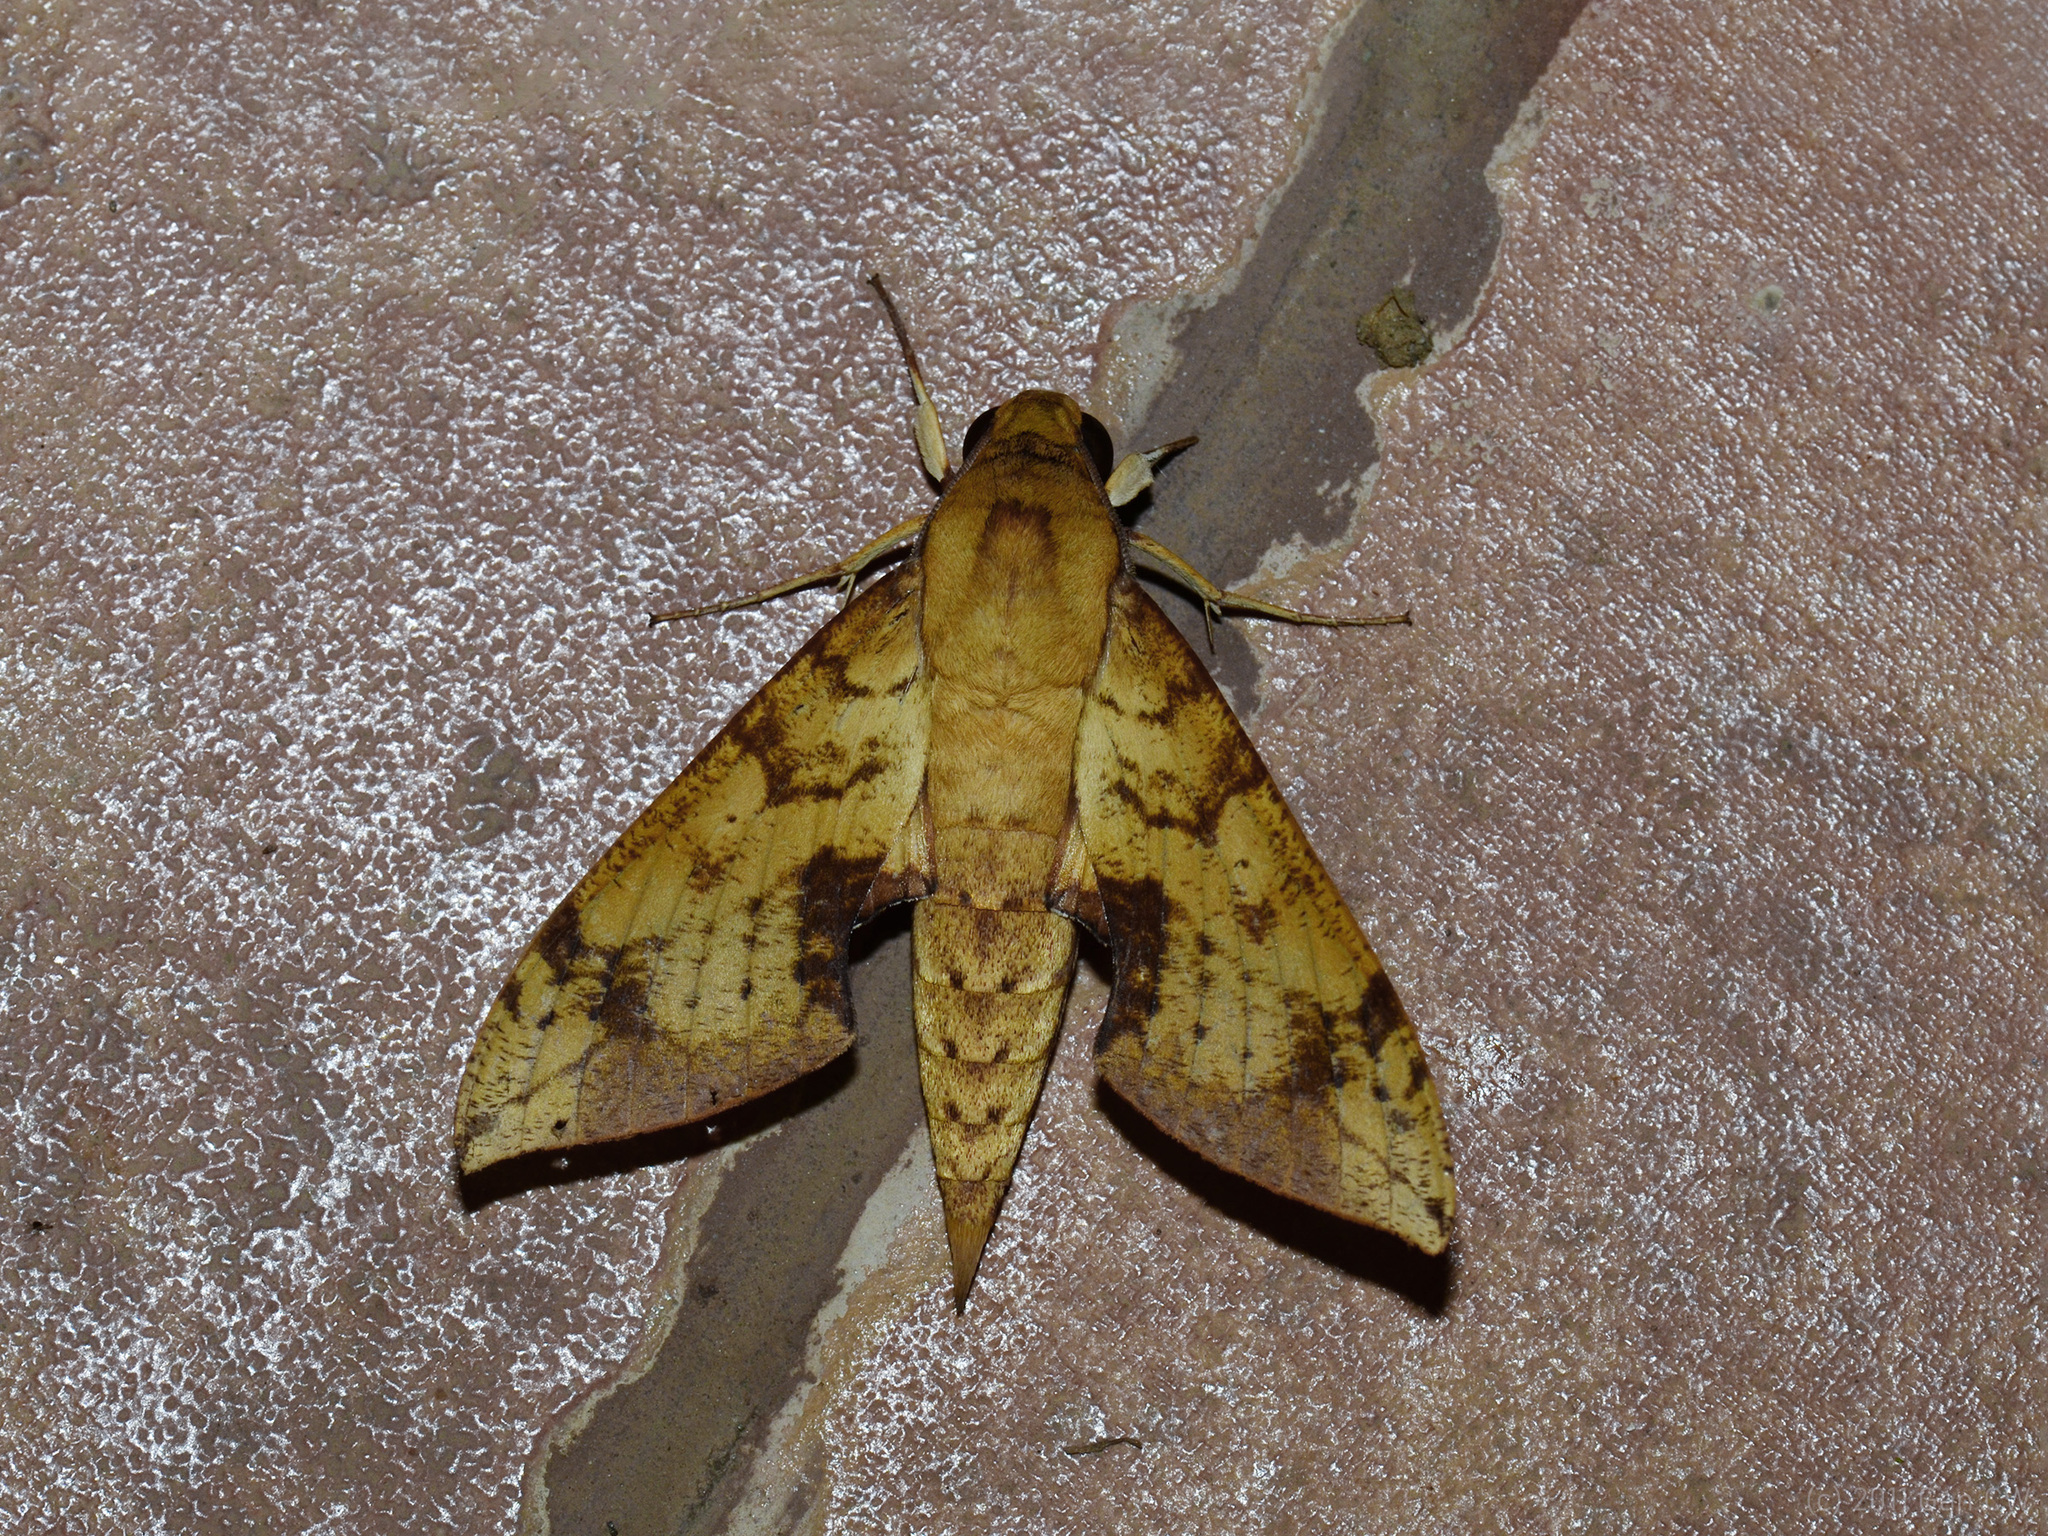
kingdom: Animalia
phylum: Arthropoda
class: Insecta
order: Lepidoptera
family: Sphingidae
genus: Cechenena
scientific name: Cechenena transpacifica
